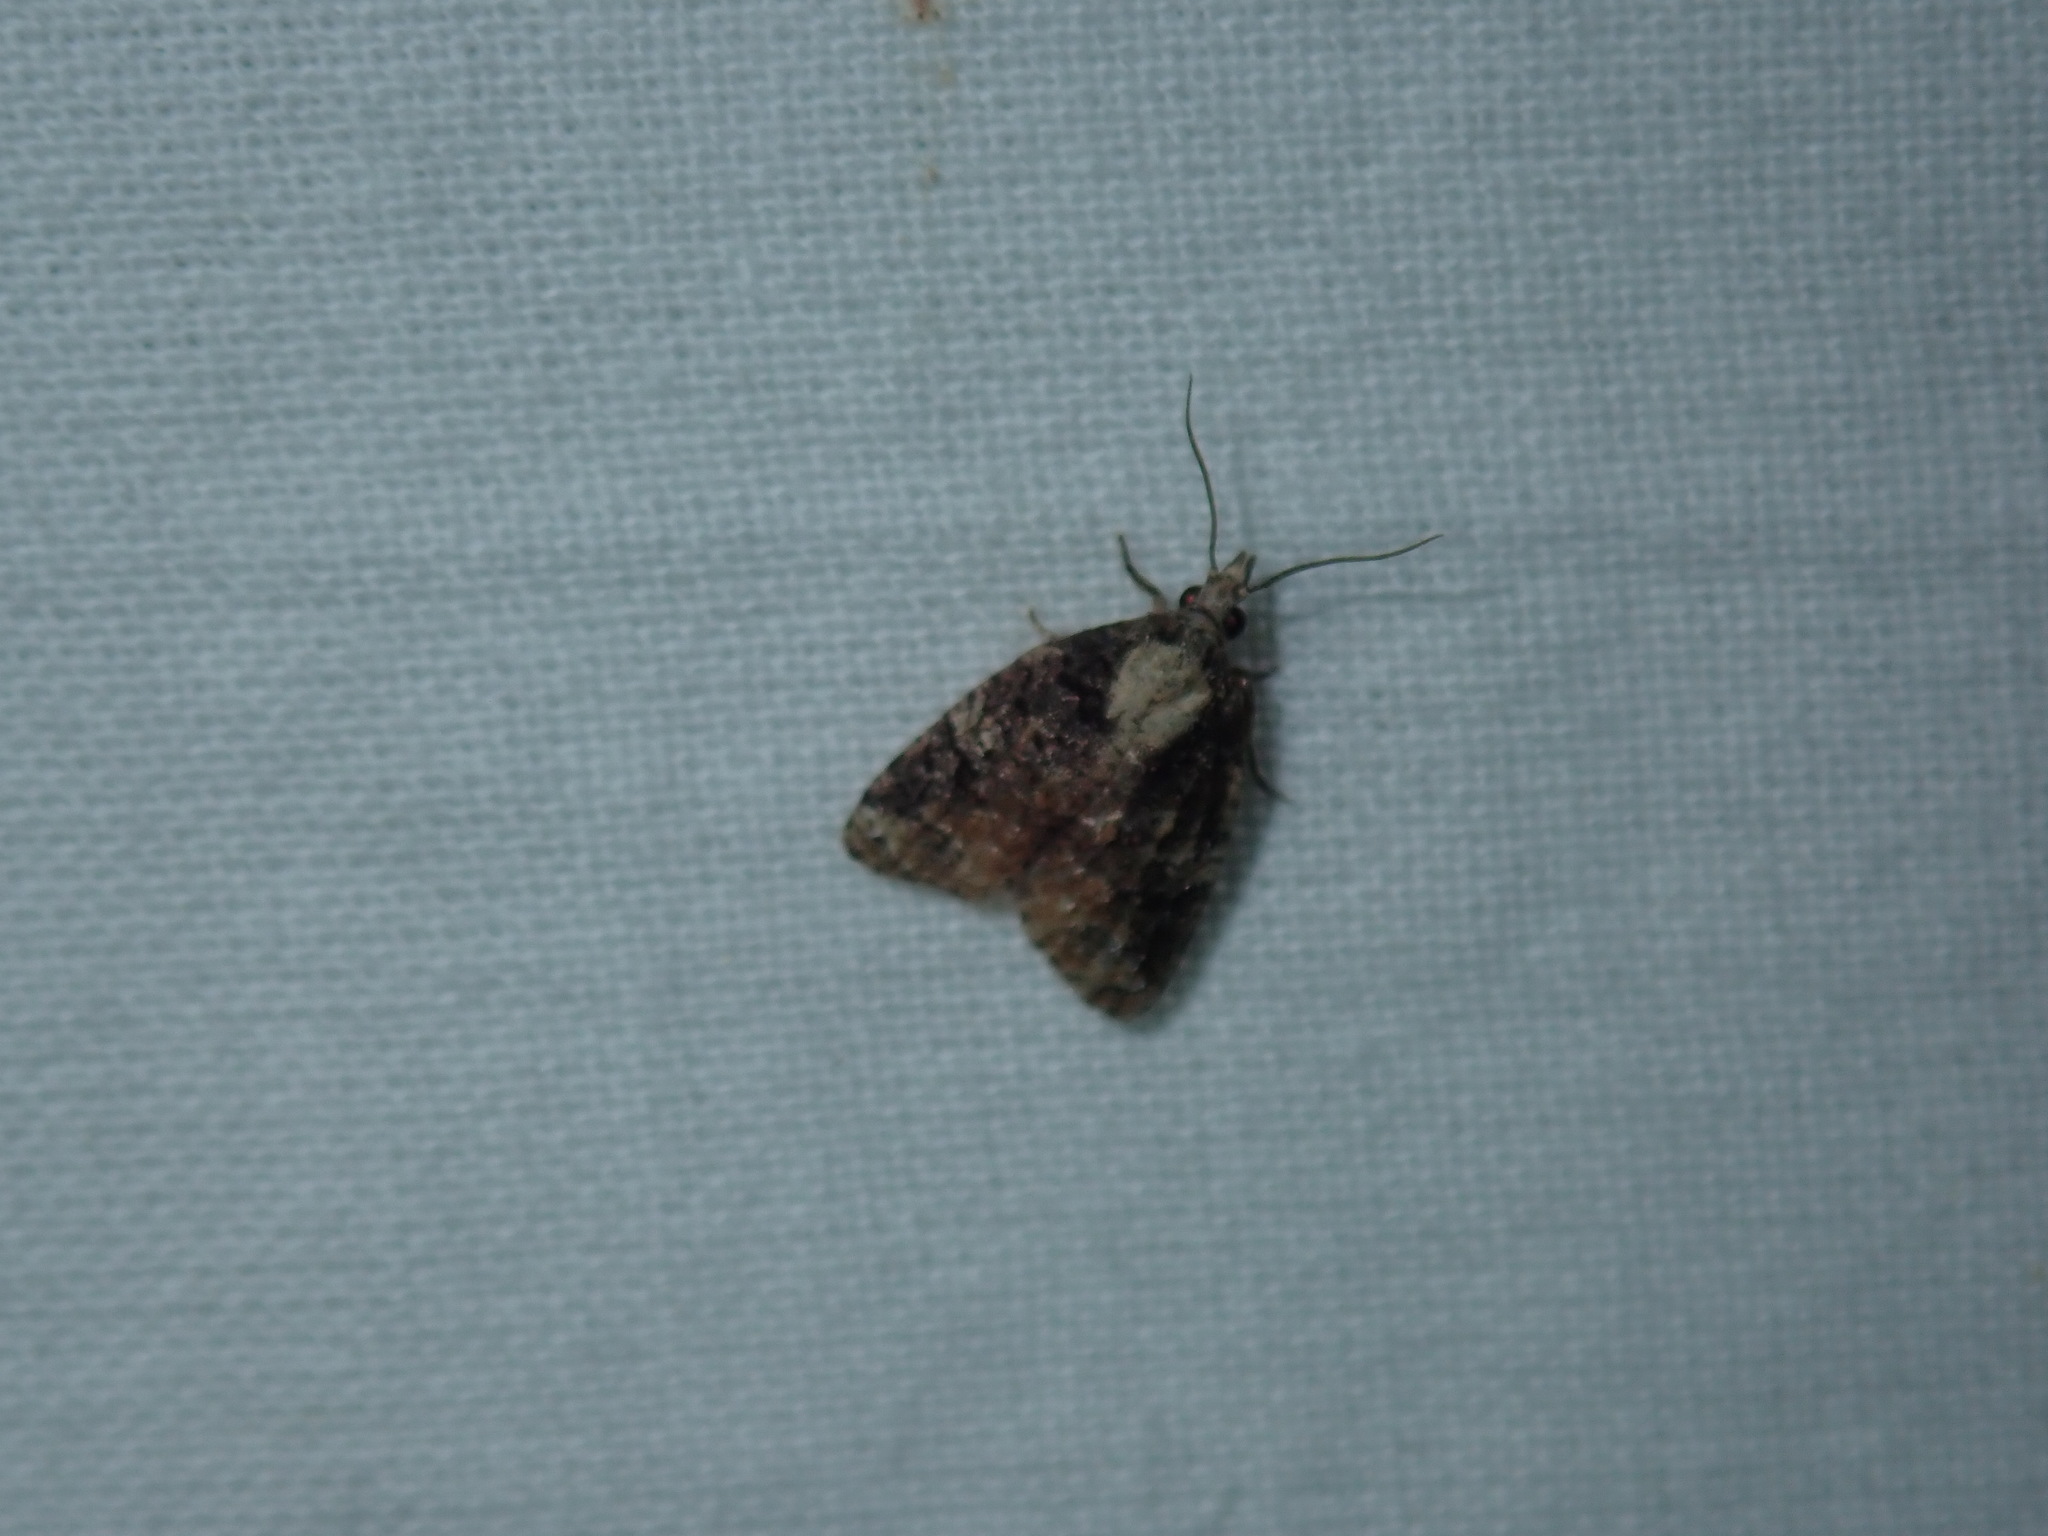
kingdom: Animalia
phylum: Arthropoda
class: Insecta
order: Lepidoptera
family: Tortricidae
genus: Platynota
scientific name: Platynota exasperatana
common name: Exasperating platynota moth
